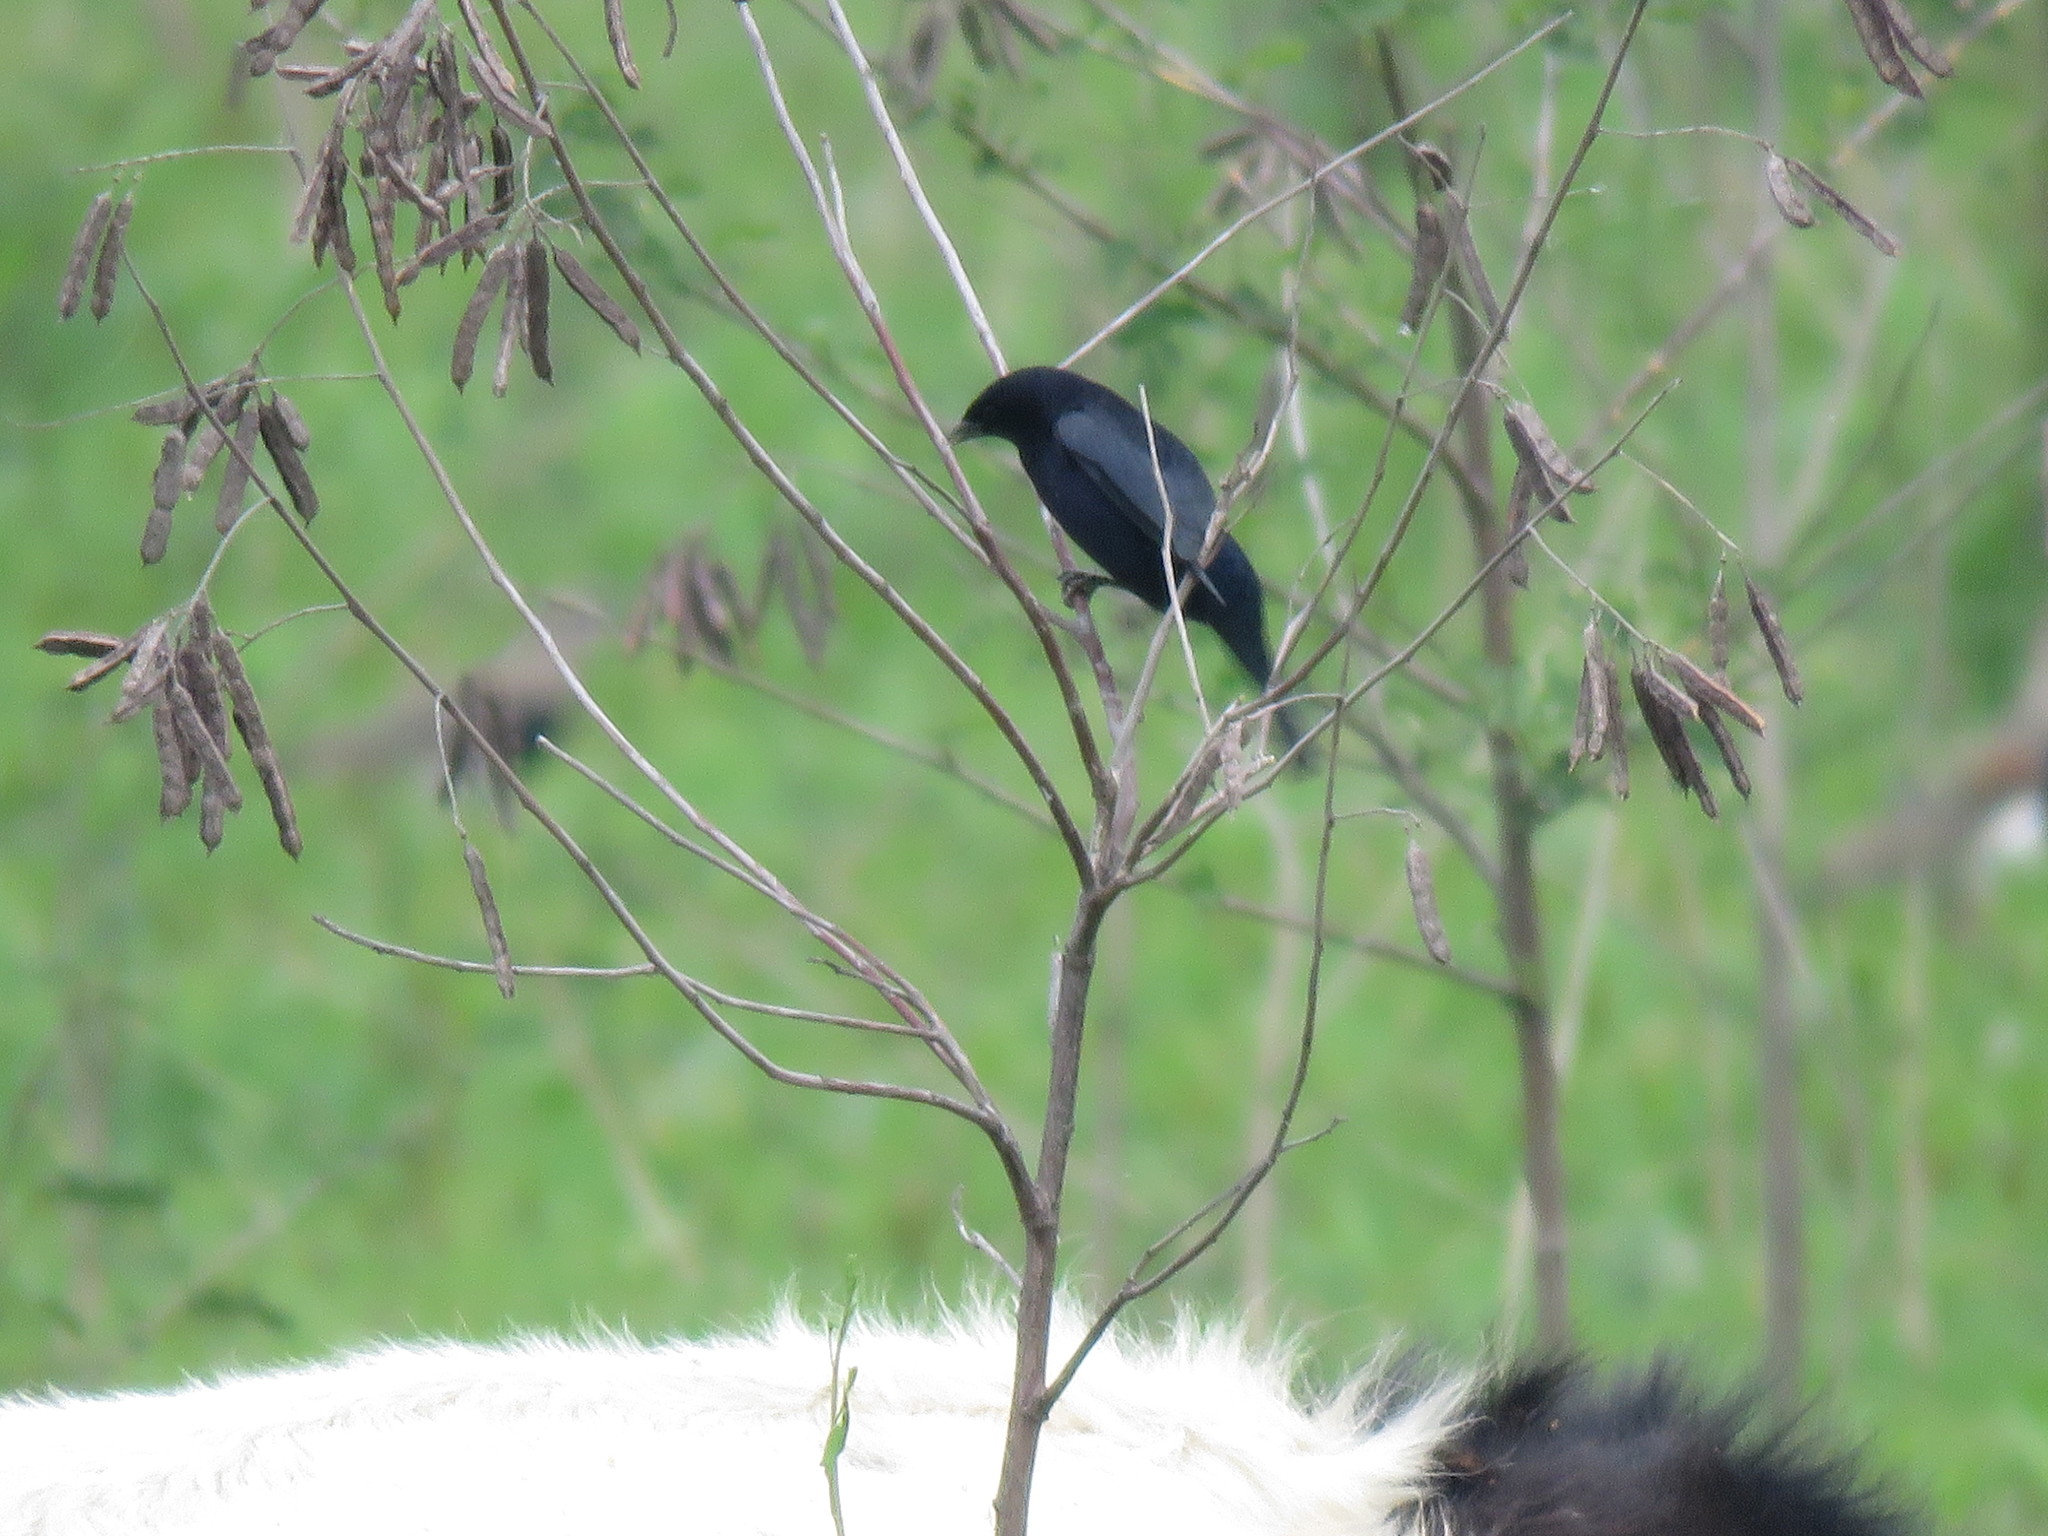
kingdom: Animalia
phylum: Chordata
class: Aves
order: Passeriformes
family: Icteridae
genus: Molothrus
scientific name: Molothrus bonariensis
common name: Shiny cowbird
